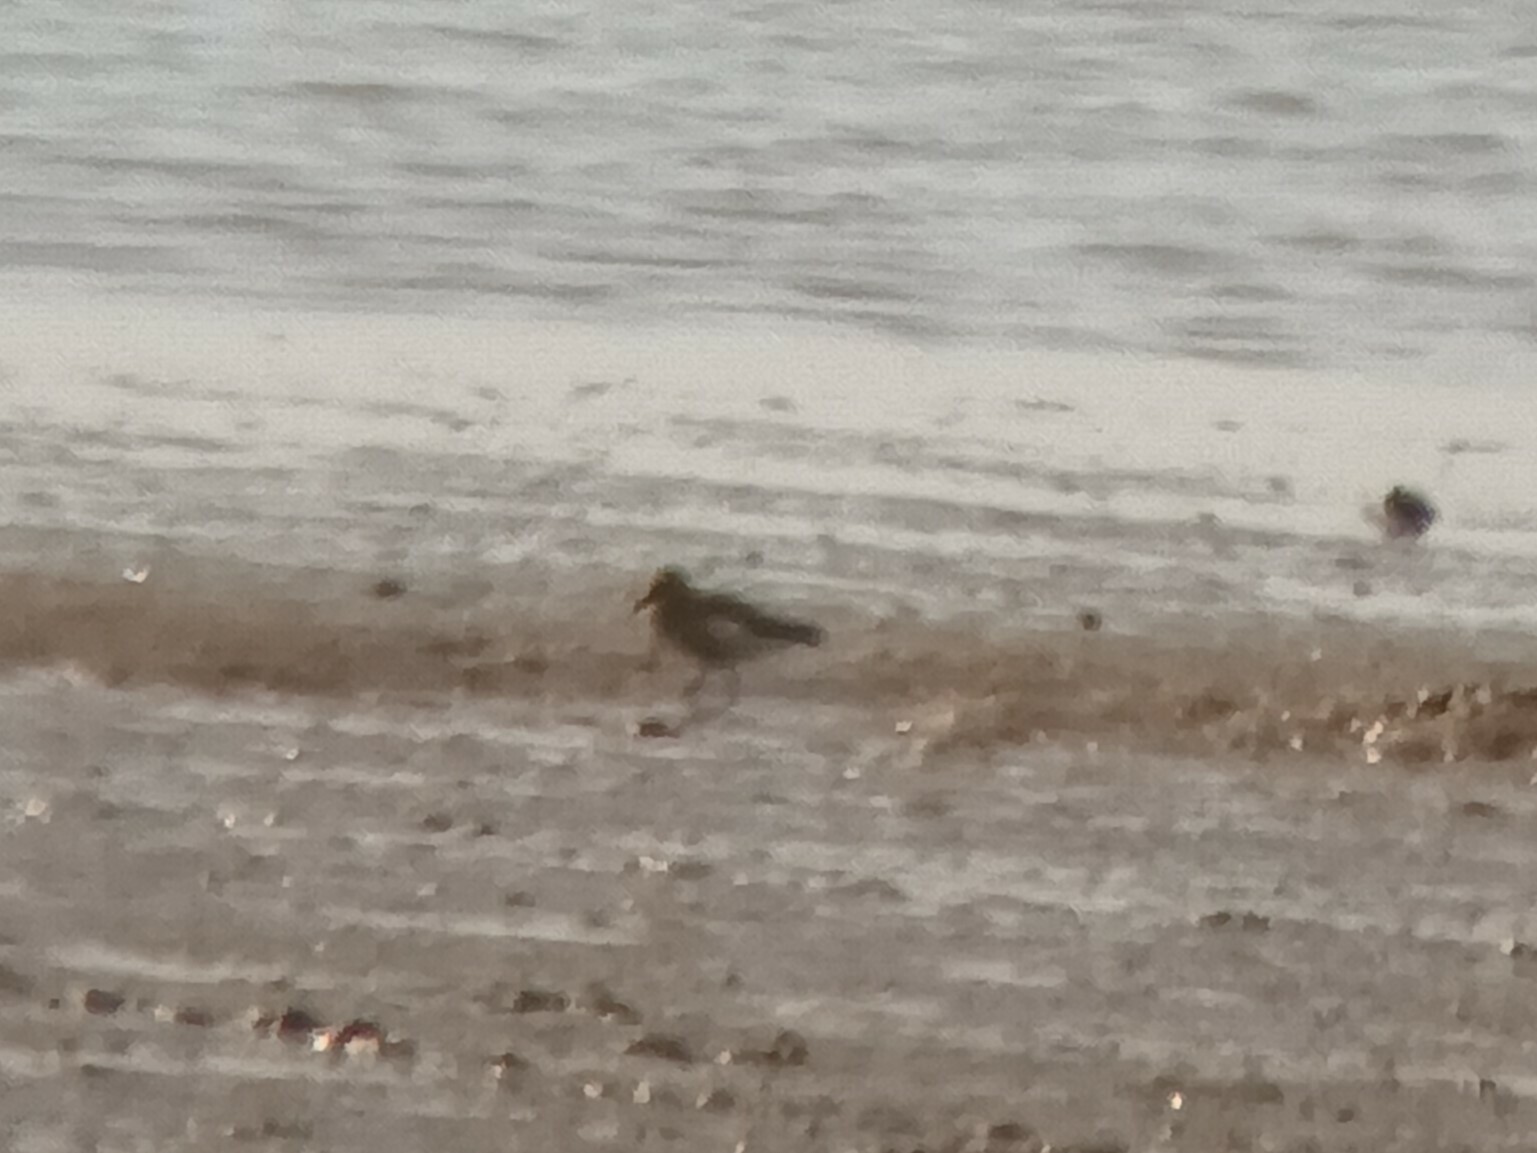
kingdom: Animalia
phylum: Chordata
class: Aves
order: Charadriiformes
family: Scolopacidae
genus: Calidris
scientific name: Calidris ferruginea
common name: Curlew sandpiper
